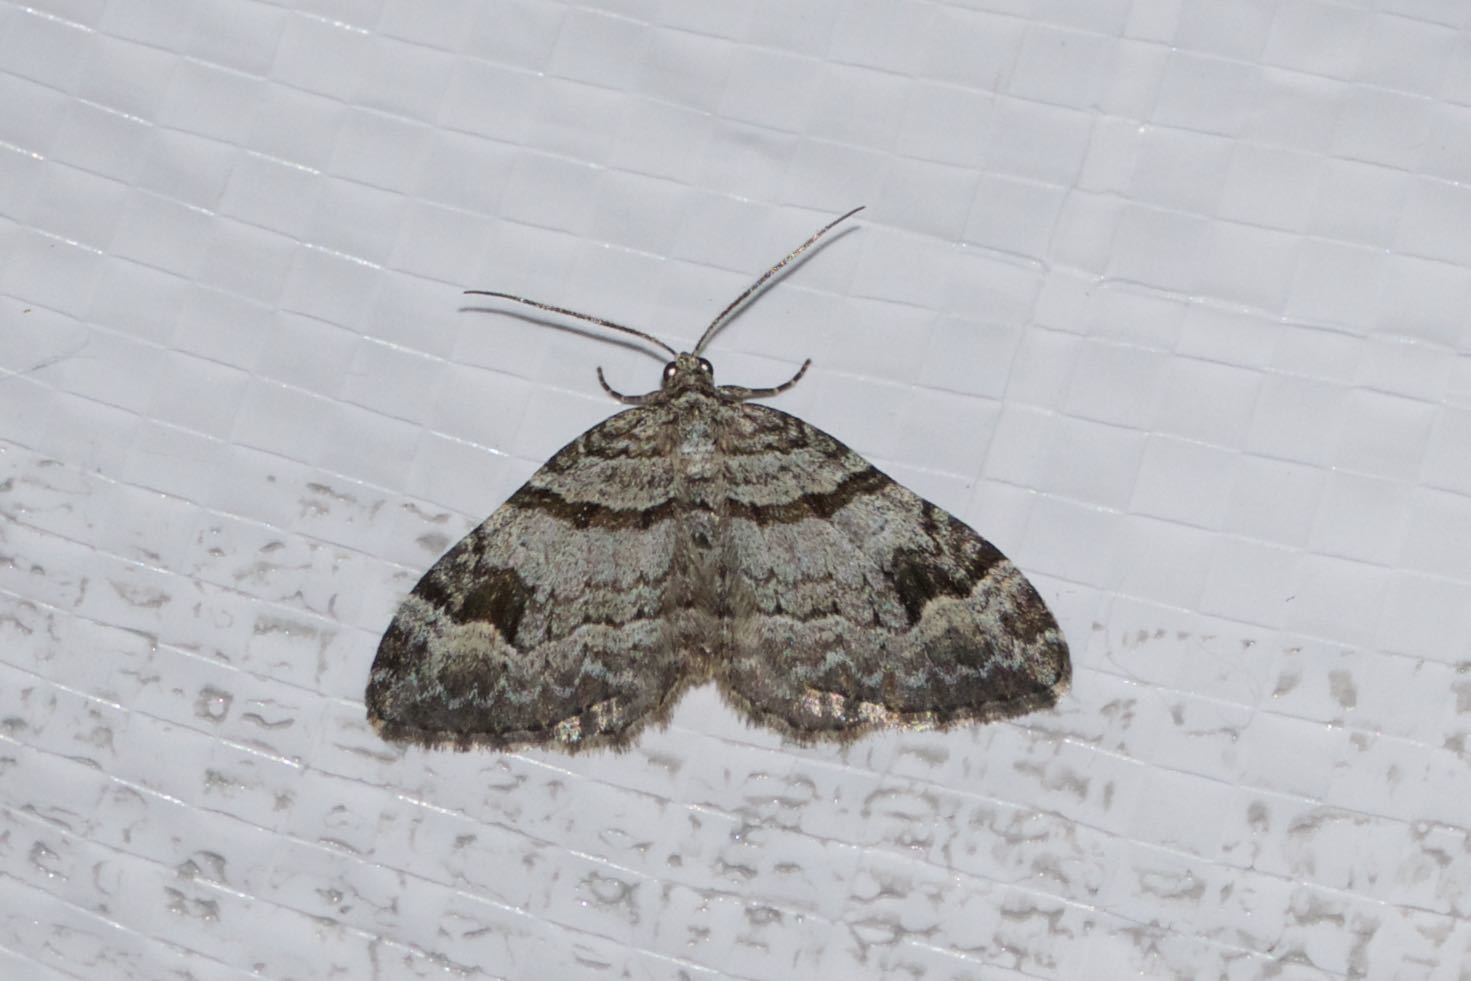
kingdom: Animalia
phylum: Arthropoda
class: Insecta
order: Lepidoptera
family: Geometridae
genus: Xanthorhoe
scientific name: Xanthorhoe abrasaria
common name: Northern carpet
